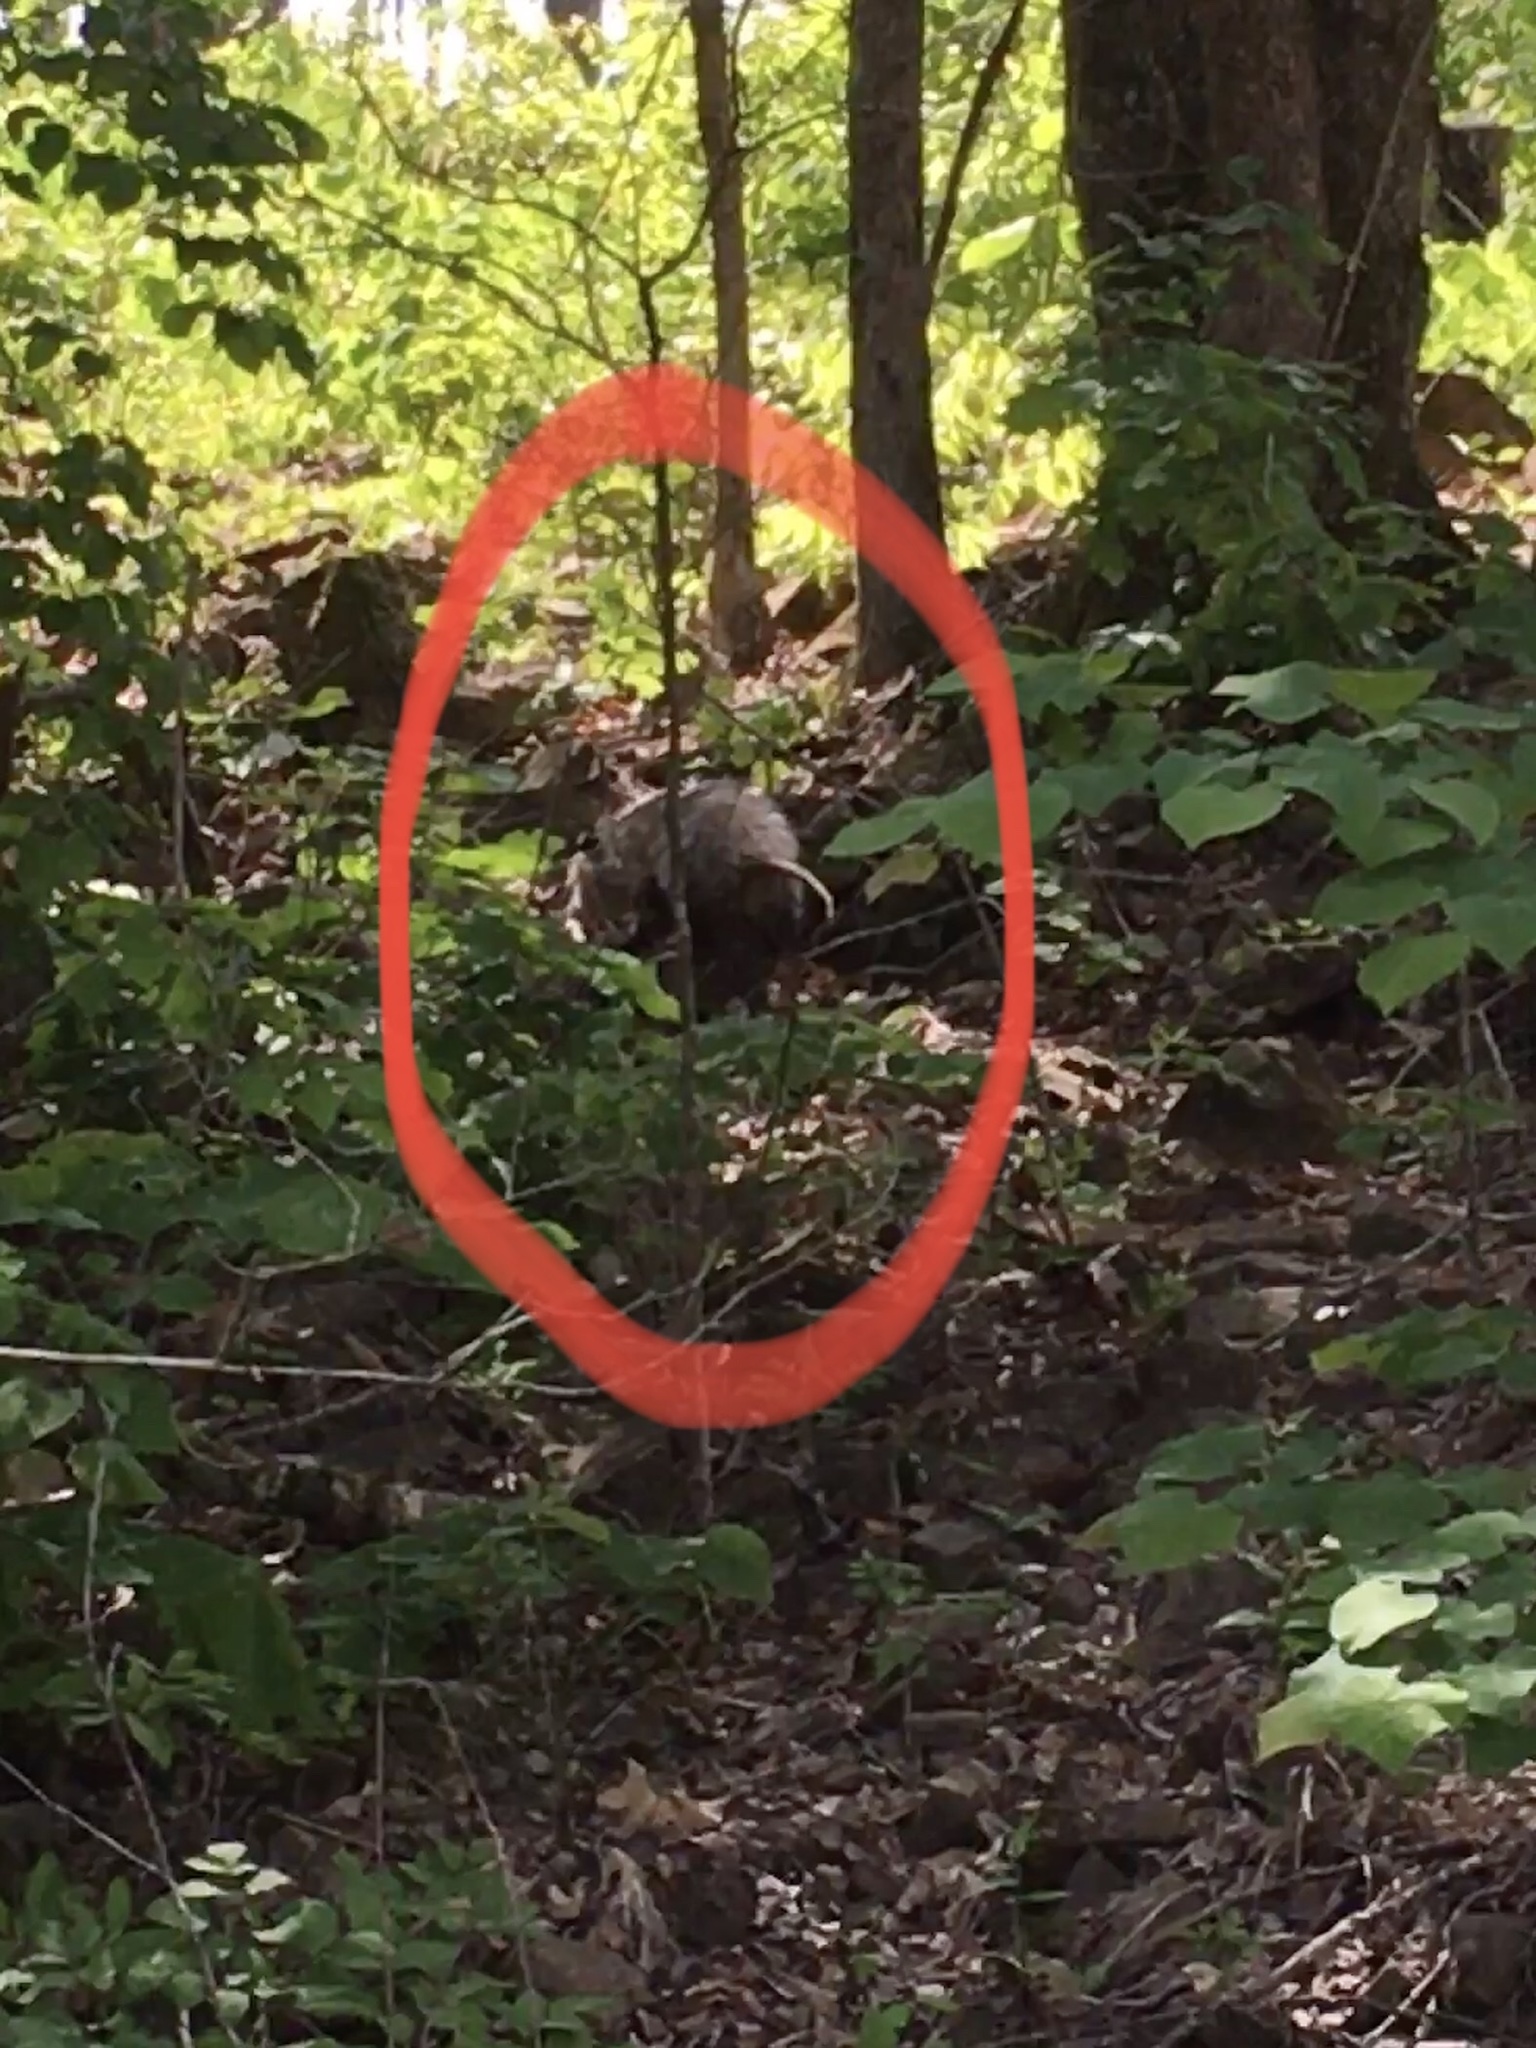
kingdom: Animalia
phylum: Chordata
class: Mammalia
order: Didelphimorphia
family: Didelphidae
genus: Didelphis
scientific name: Didelphis virginiana
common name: Virginia opossum
